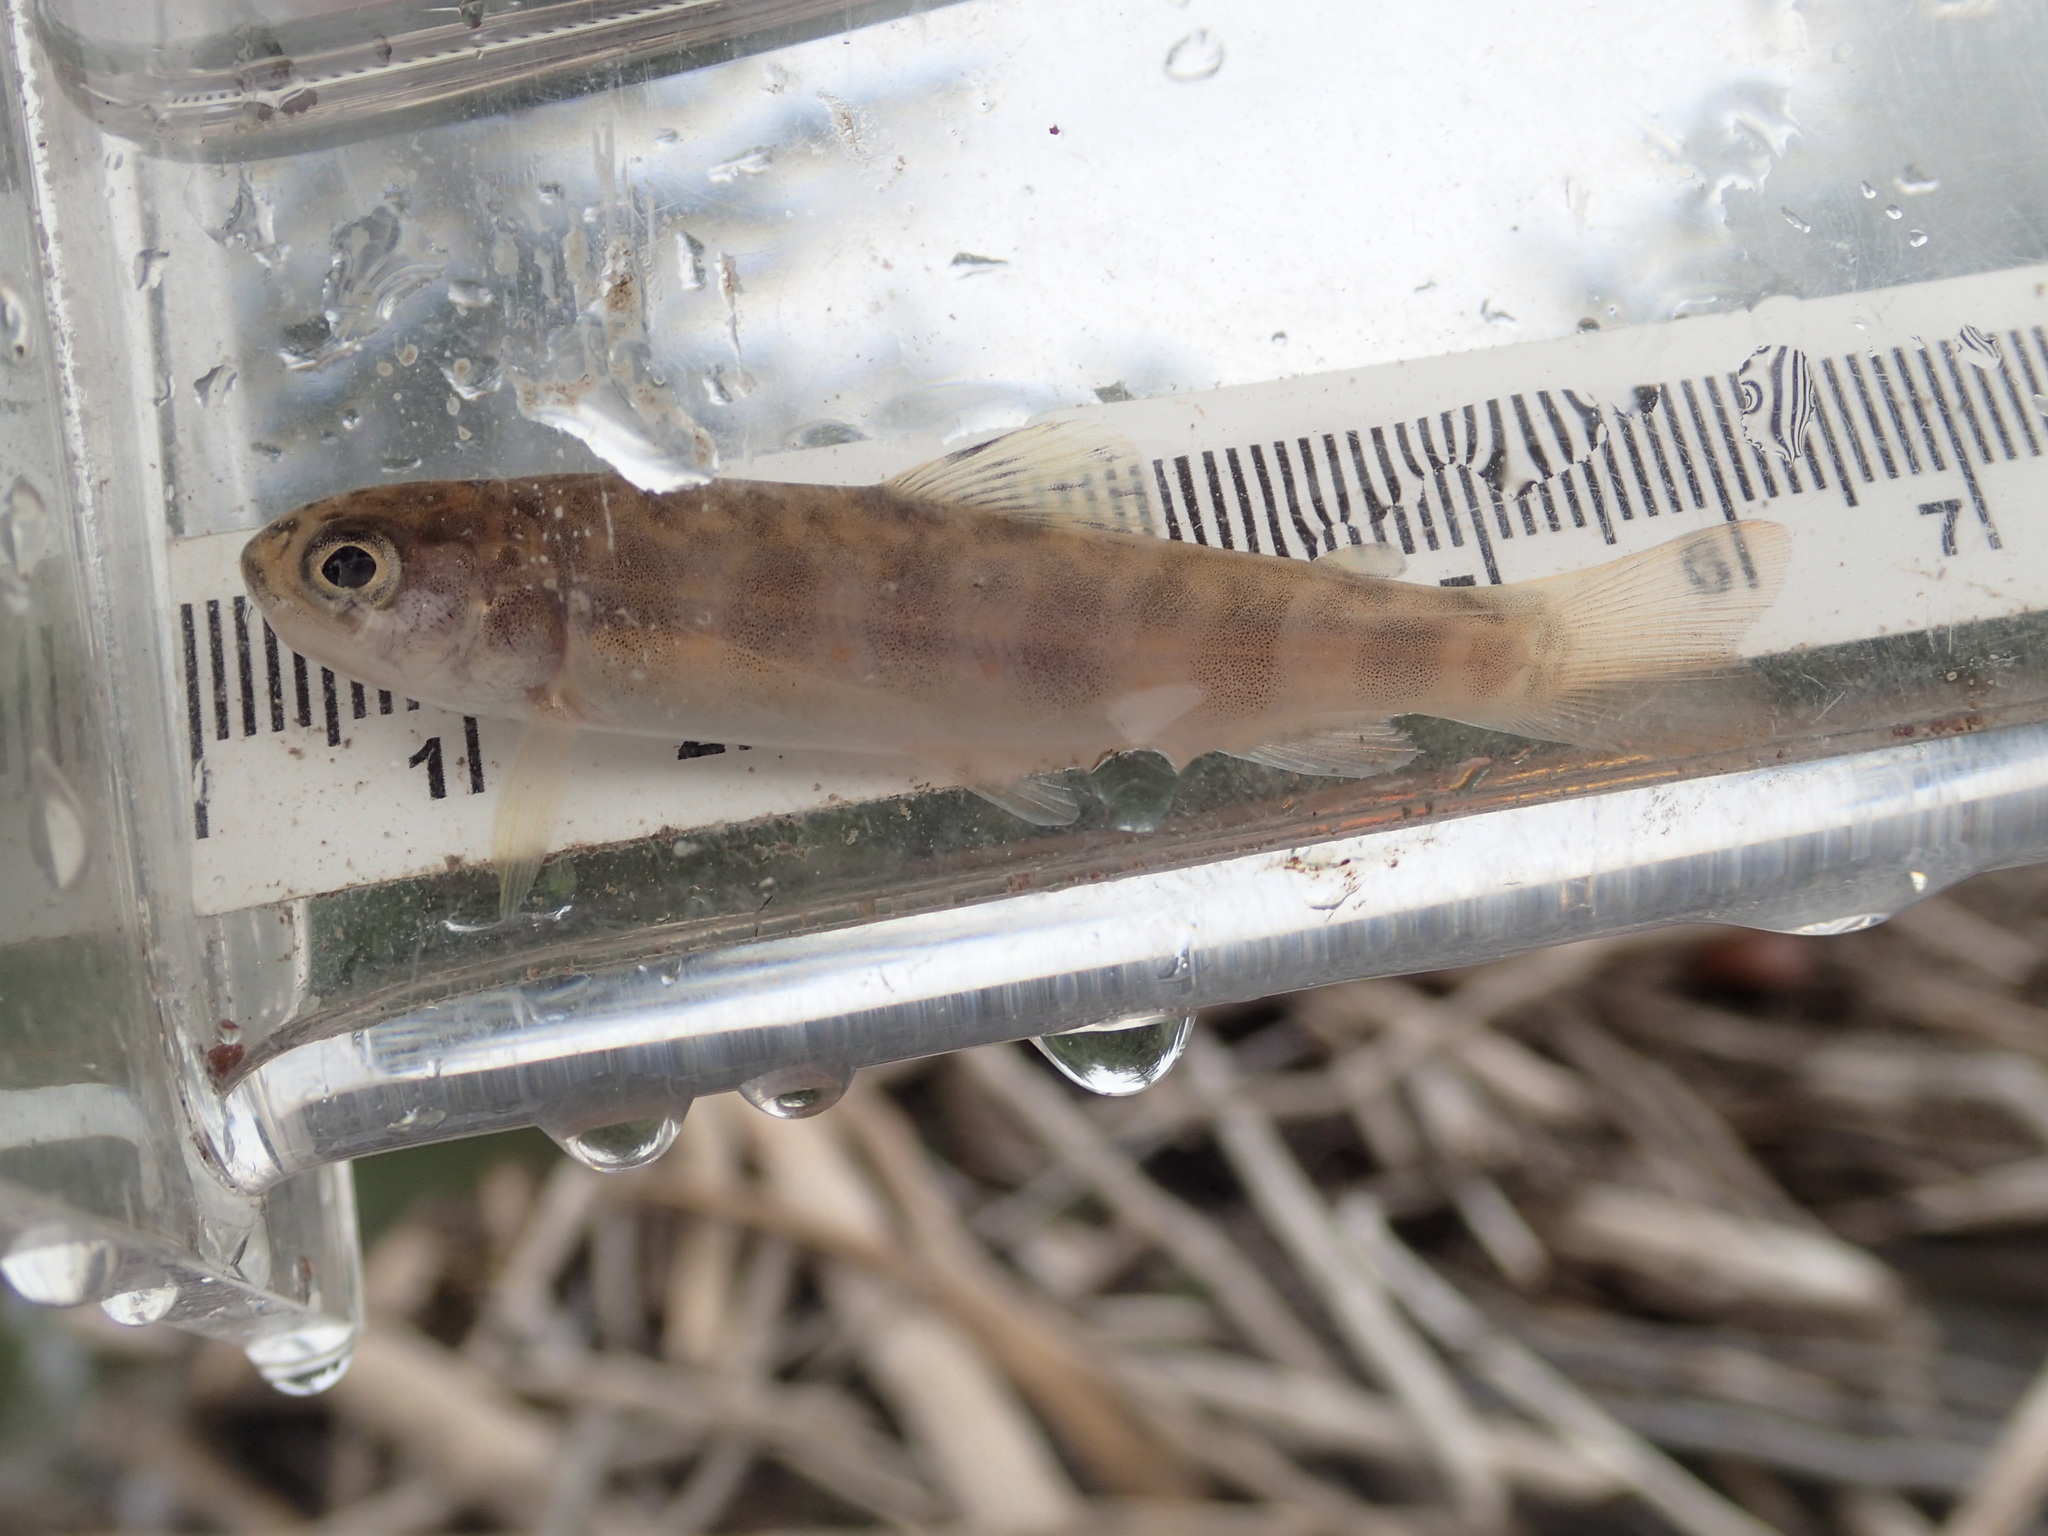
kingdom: Animalia
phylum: Chordata
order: Salmoniformes
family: Salmonidae
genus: Salvelinus
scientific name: Salvelinus fontinalis
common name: Brook trout
